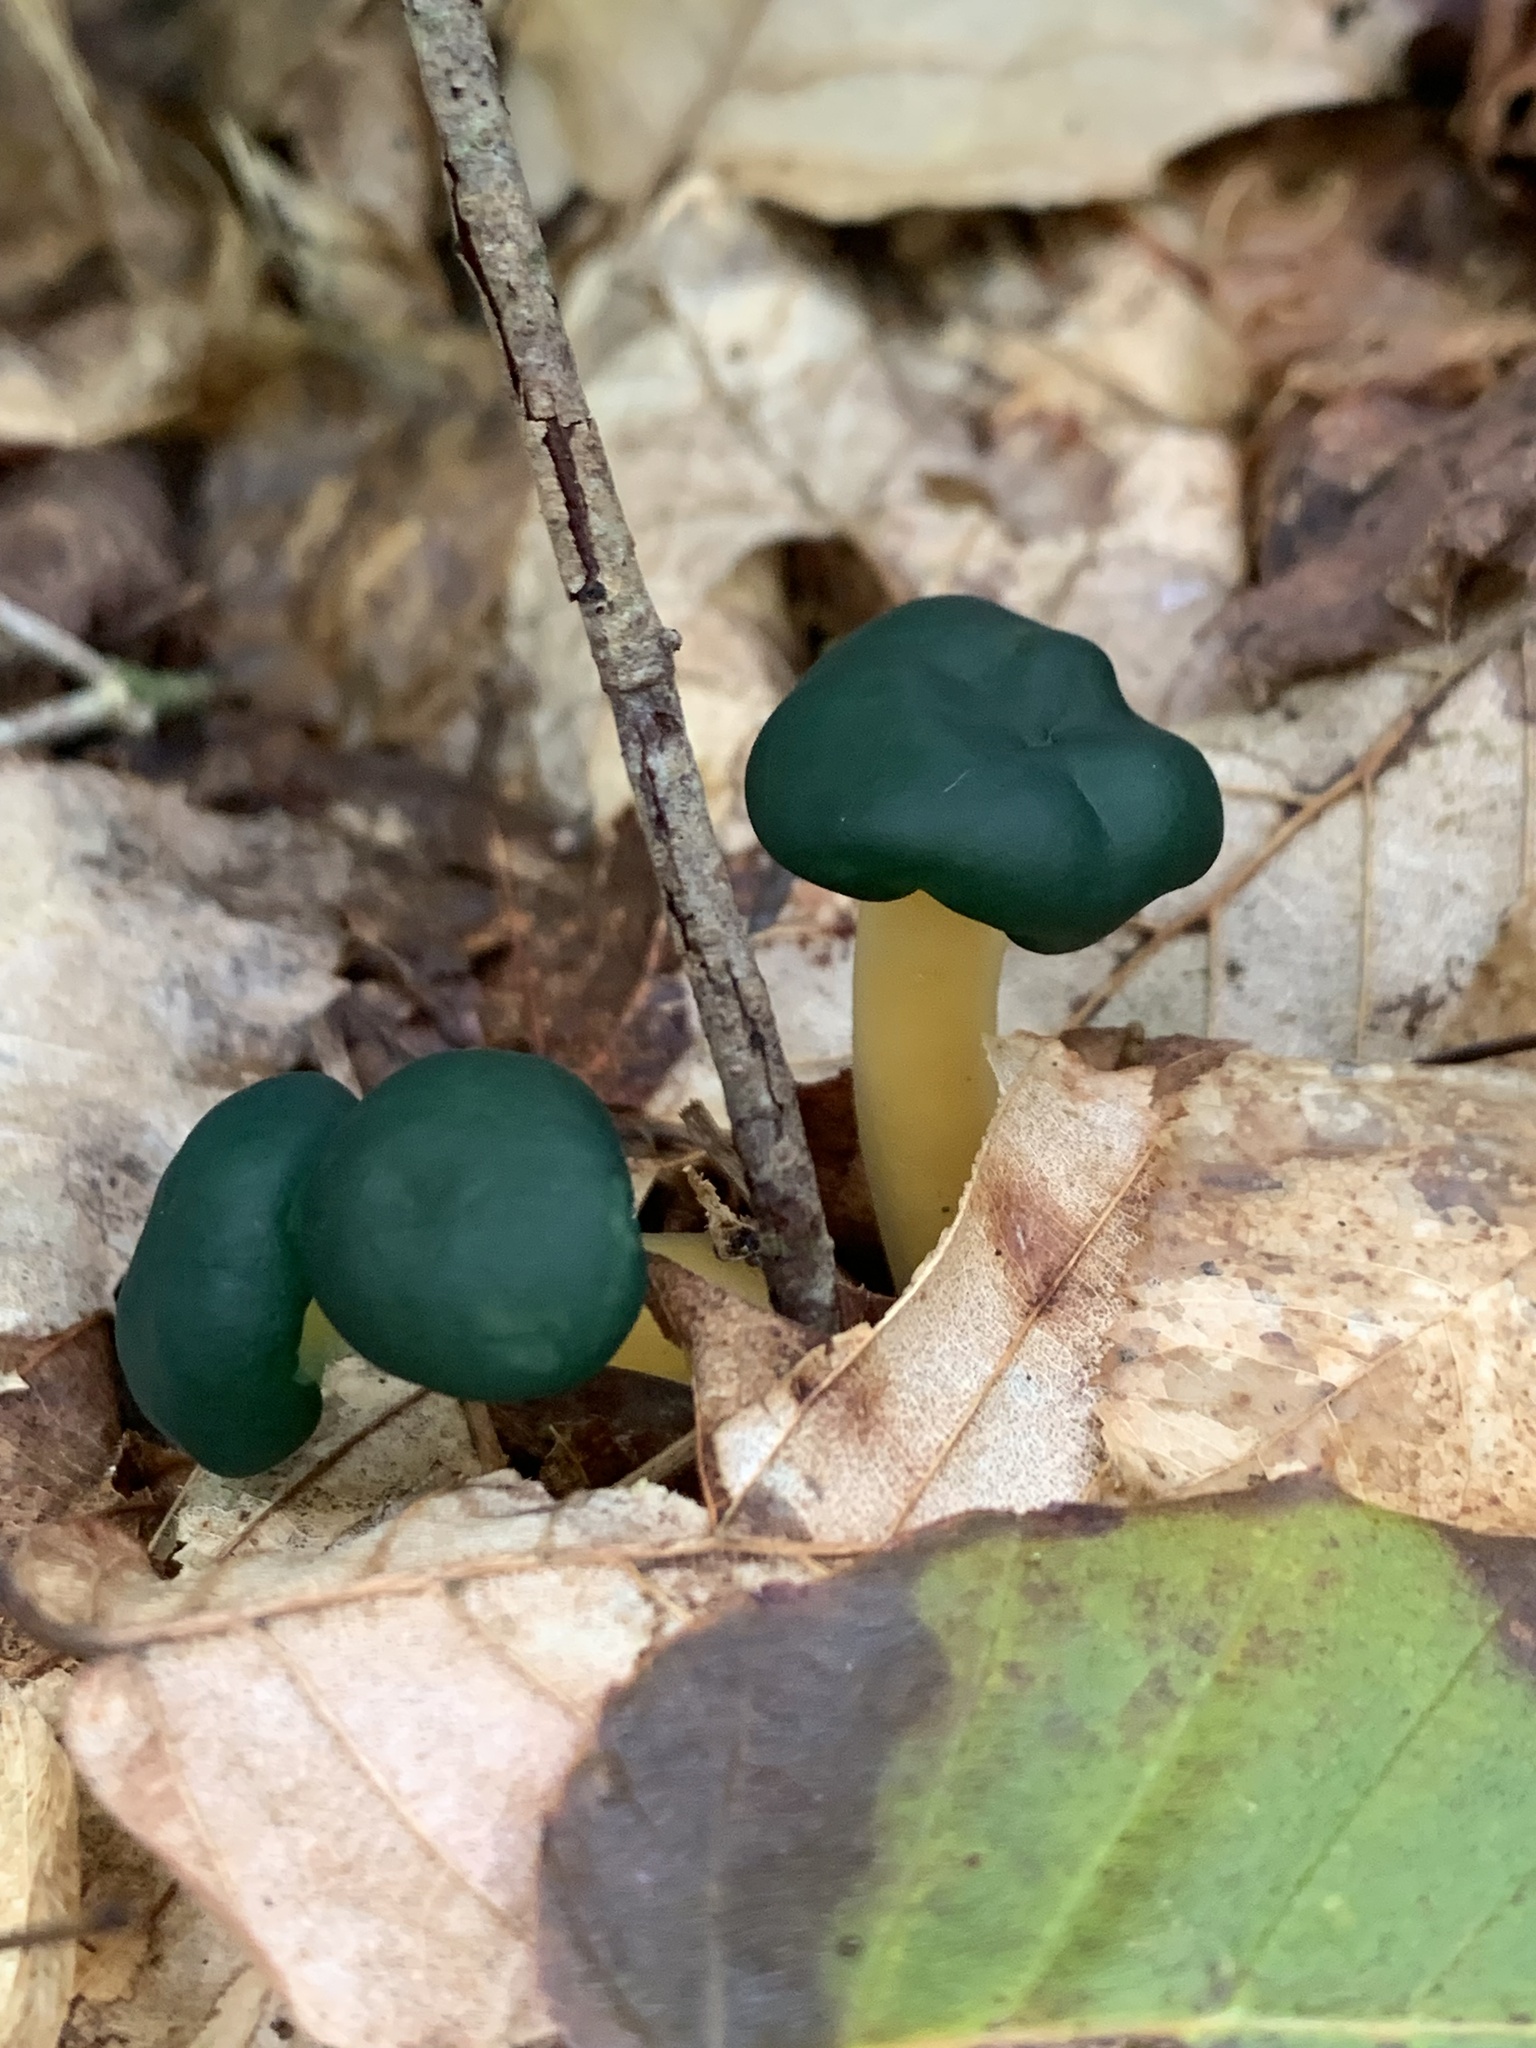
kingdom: Fungi
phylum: Ascomycota
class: Leotiomycetes
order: Leotiales
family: Leotiaceae
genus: Leotia
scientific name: Leotia lubrica
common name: Jellybaby
